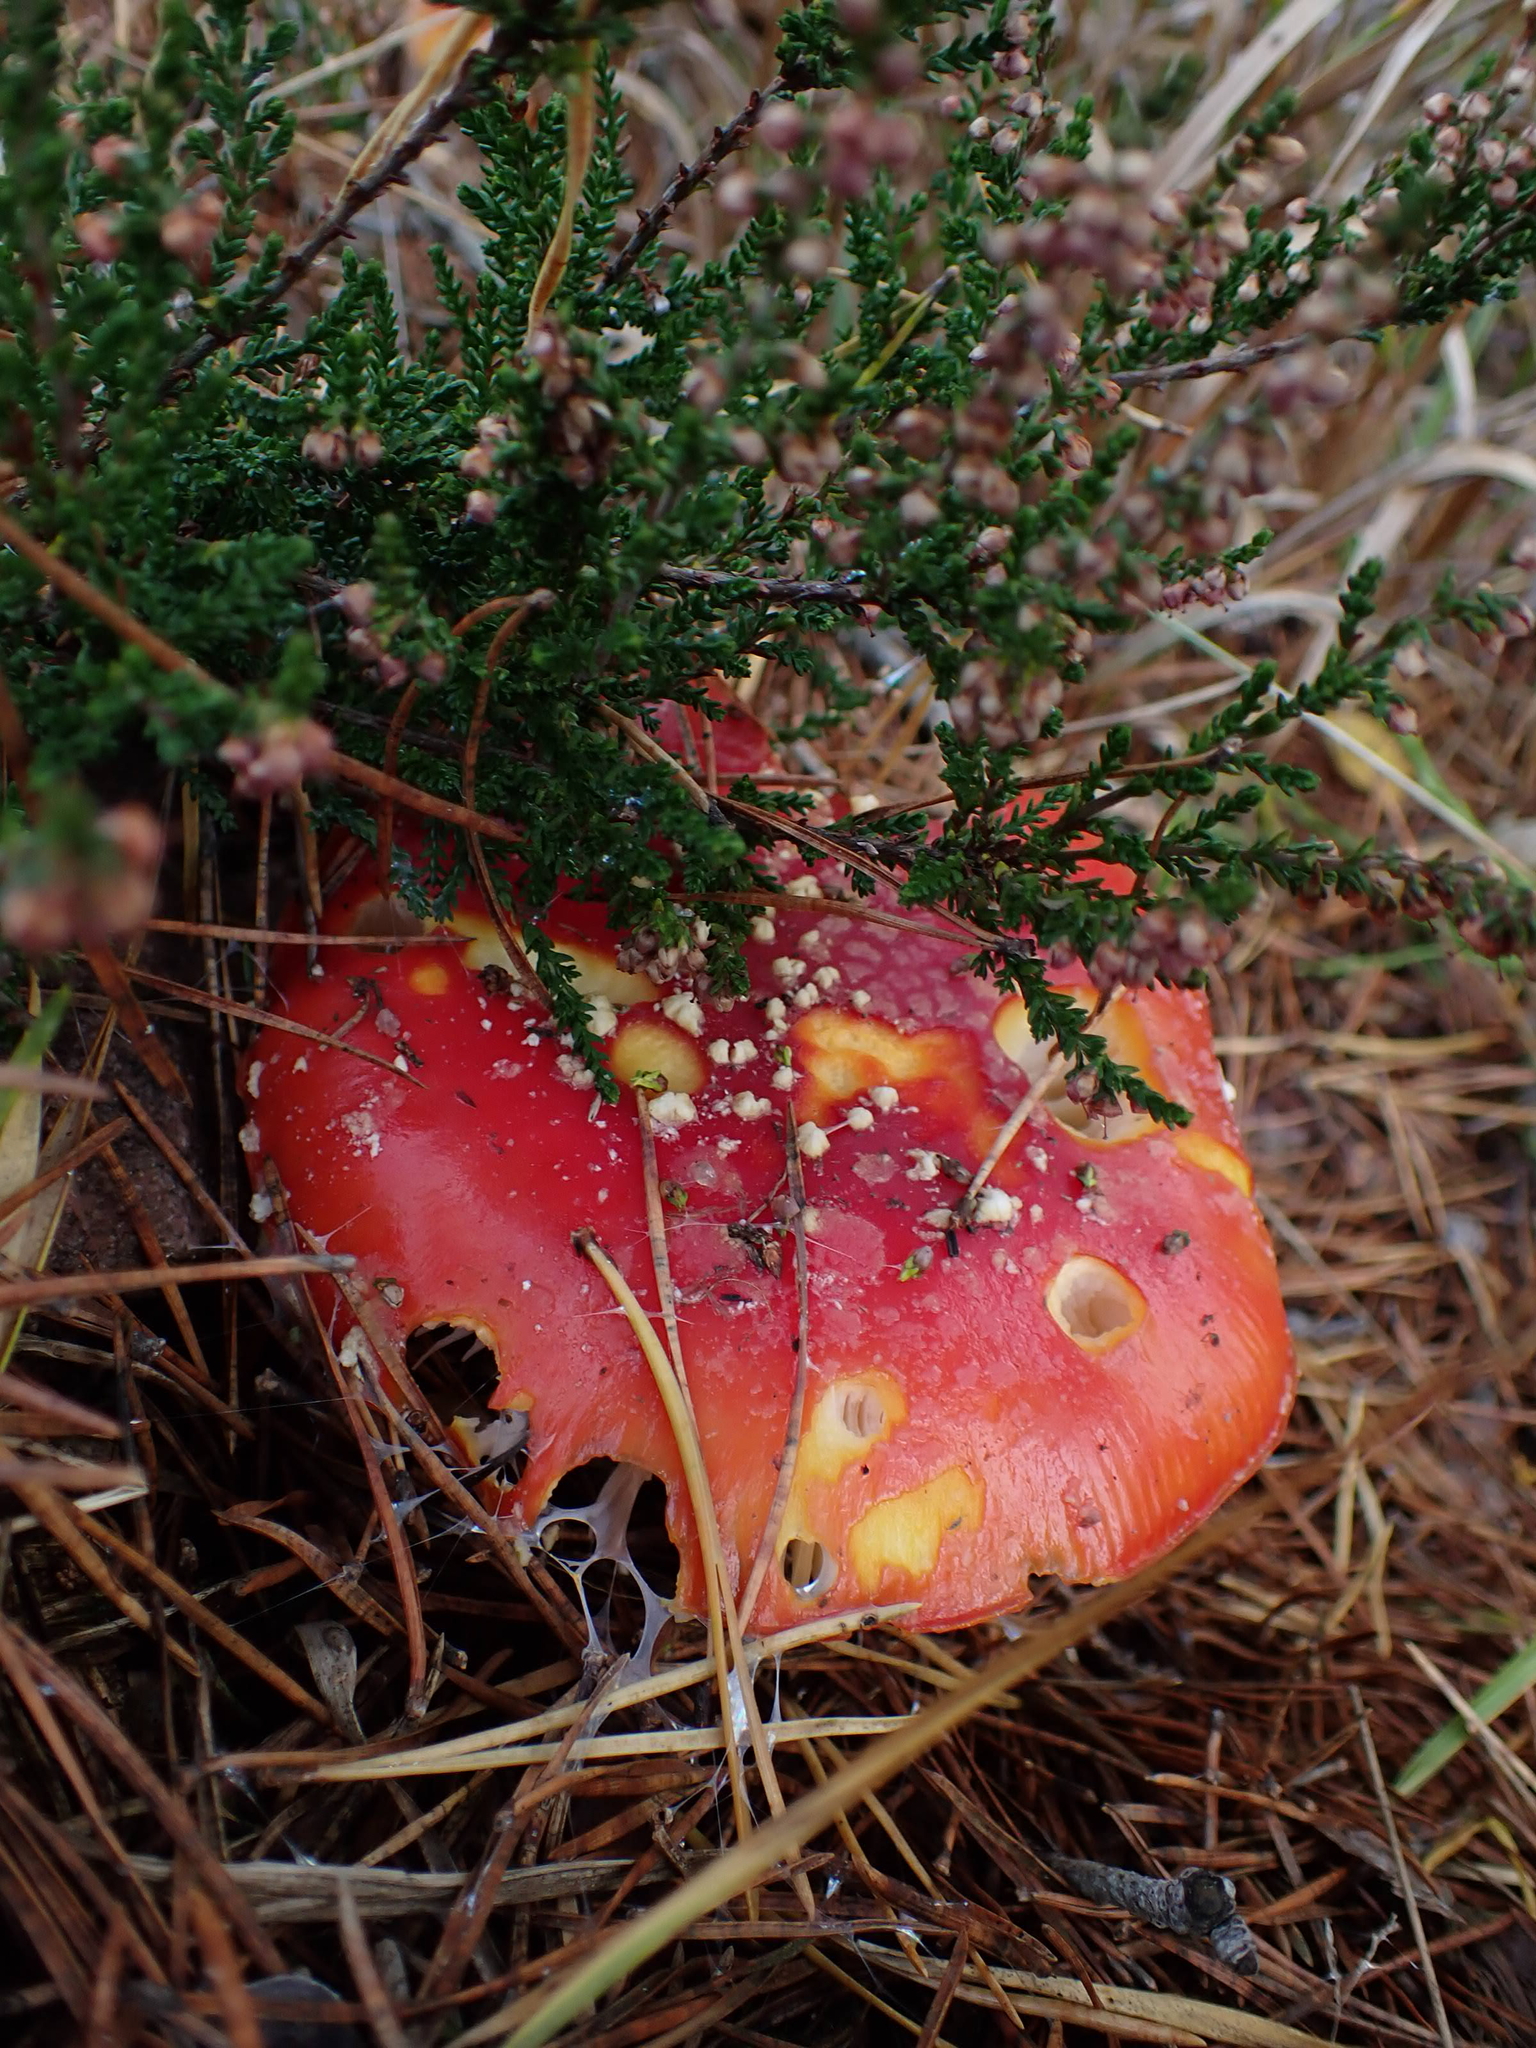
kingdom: Fungi
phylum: Basidiomycota
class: Agaricomycetes
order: Agaricales
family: Amanitaceae
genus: Amanita
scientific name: Amanita muscaria
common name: Fly agaric
